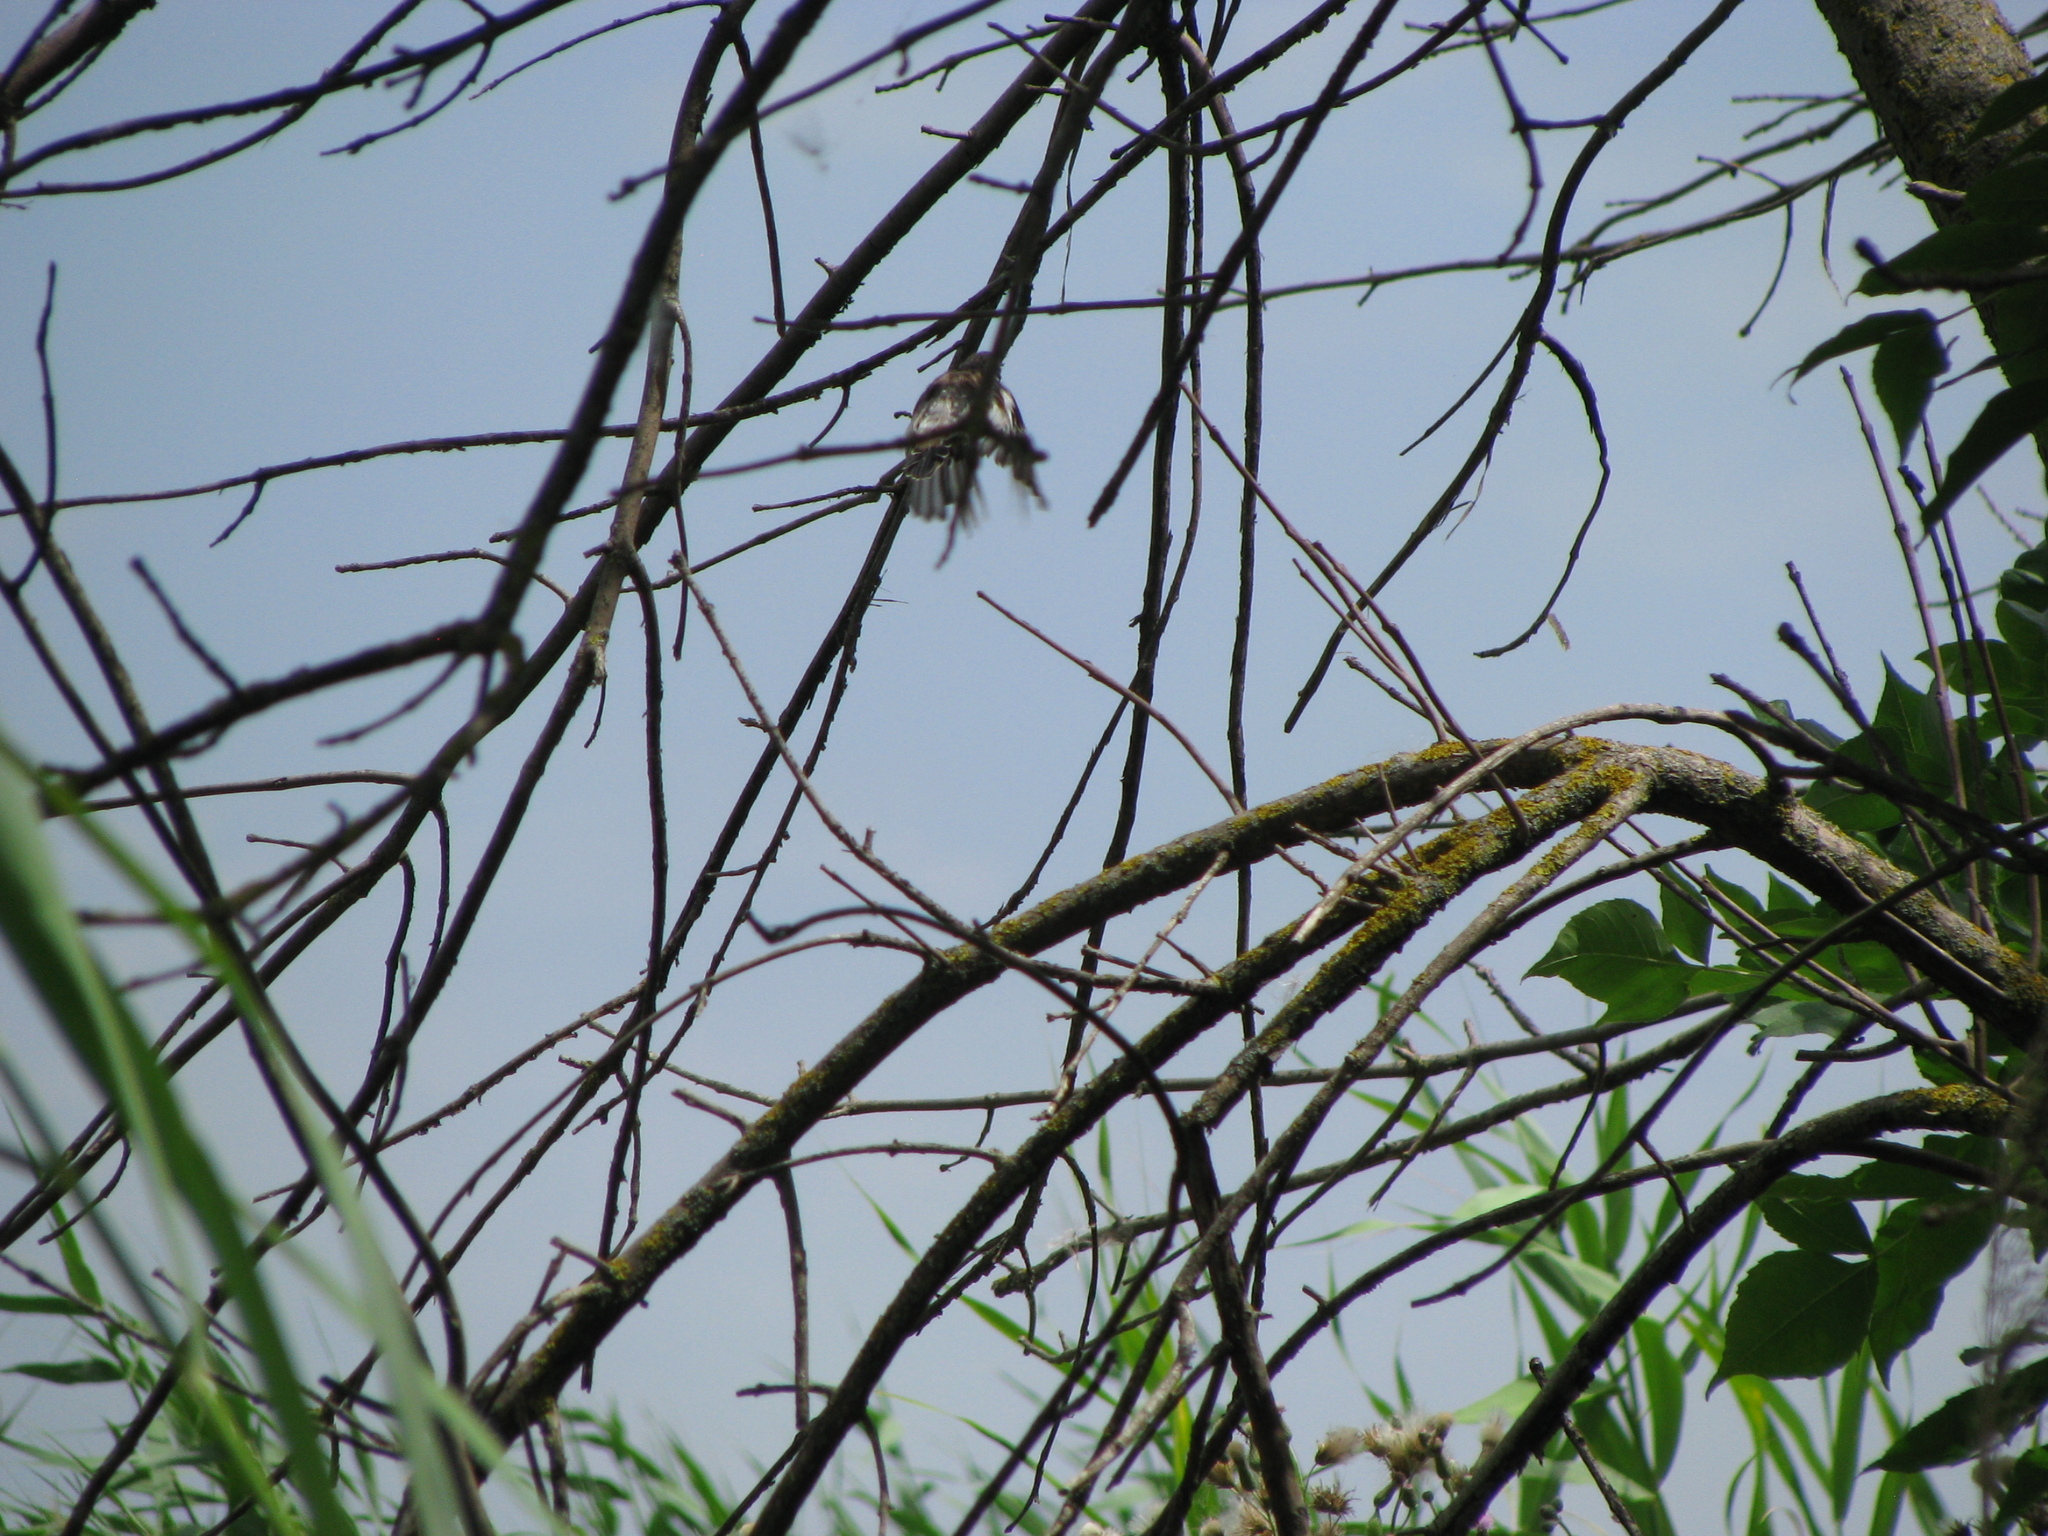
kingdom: Animalia
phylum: Chordata
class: Aves
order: Passeriformes
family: Muscicapidae
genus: Saxicola
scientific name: Saxicola maurus
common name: Siberian stonechat
